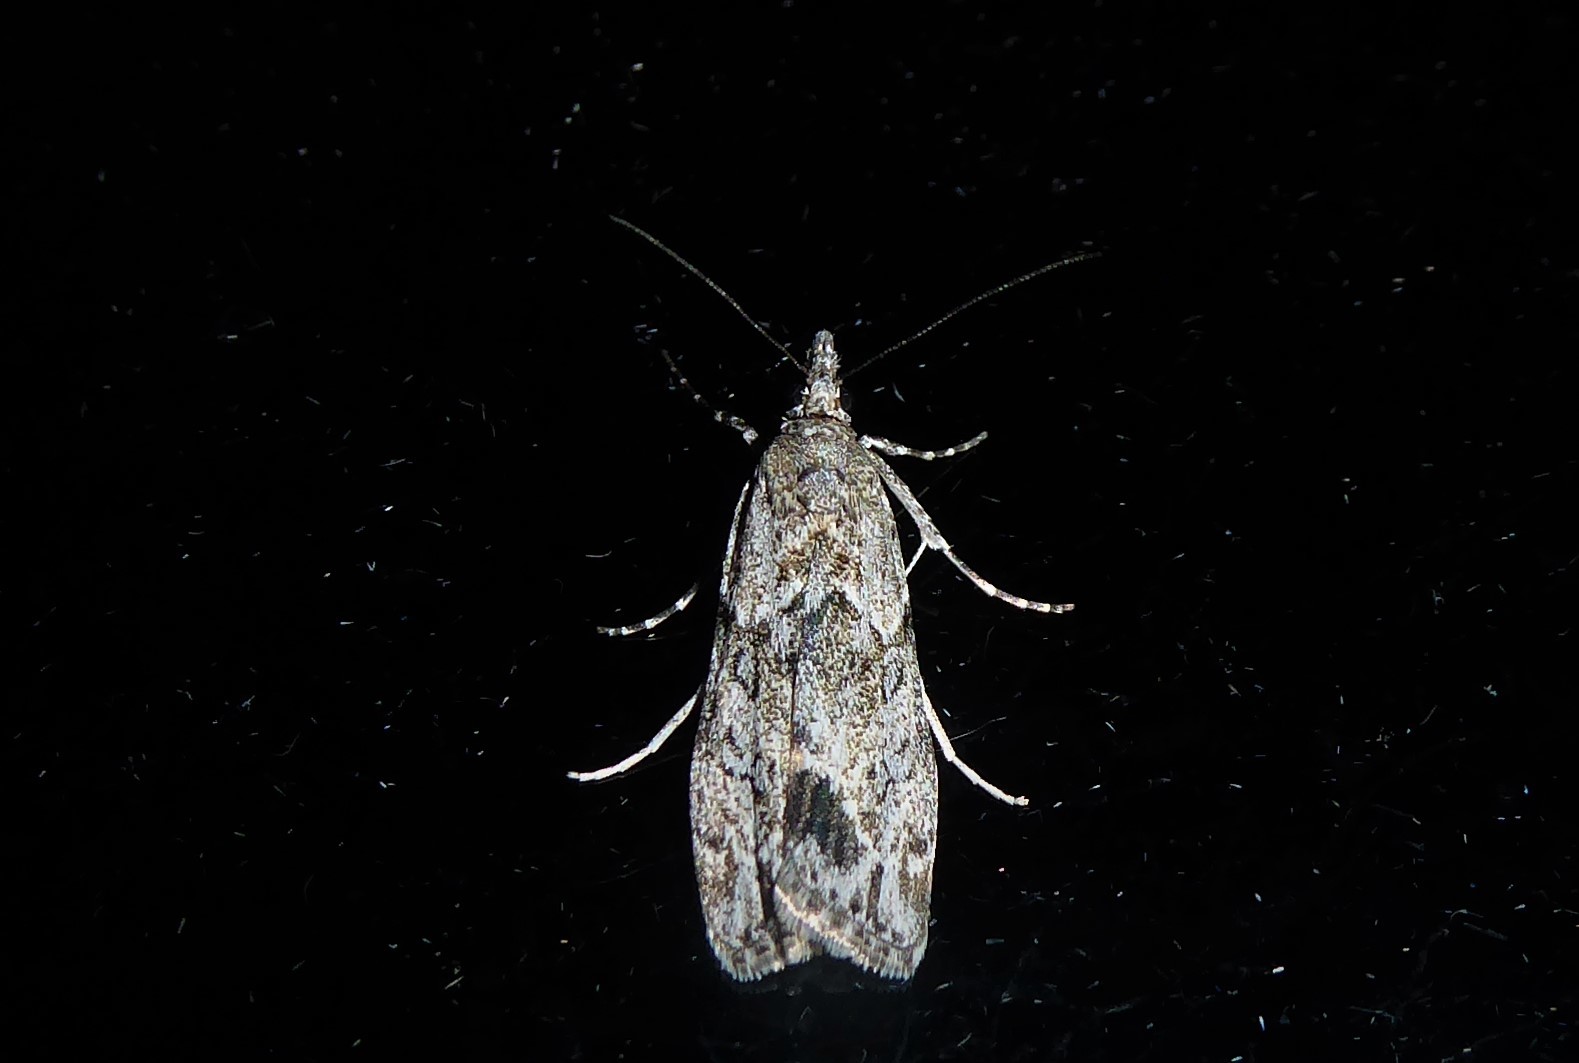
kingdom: Animalia
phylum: Arthropoda
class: Insecta
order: Lepidoptera
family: Crambidae
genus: Eudonia
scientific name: Eudonia rakaiensis
